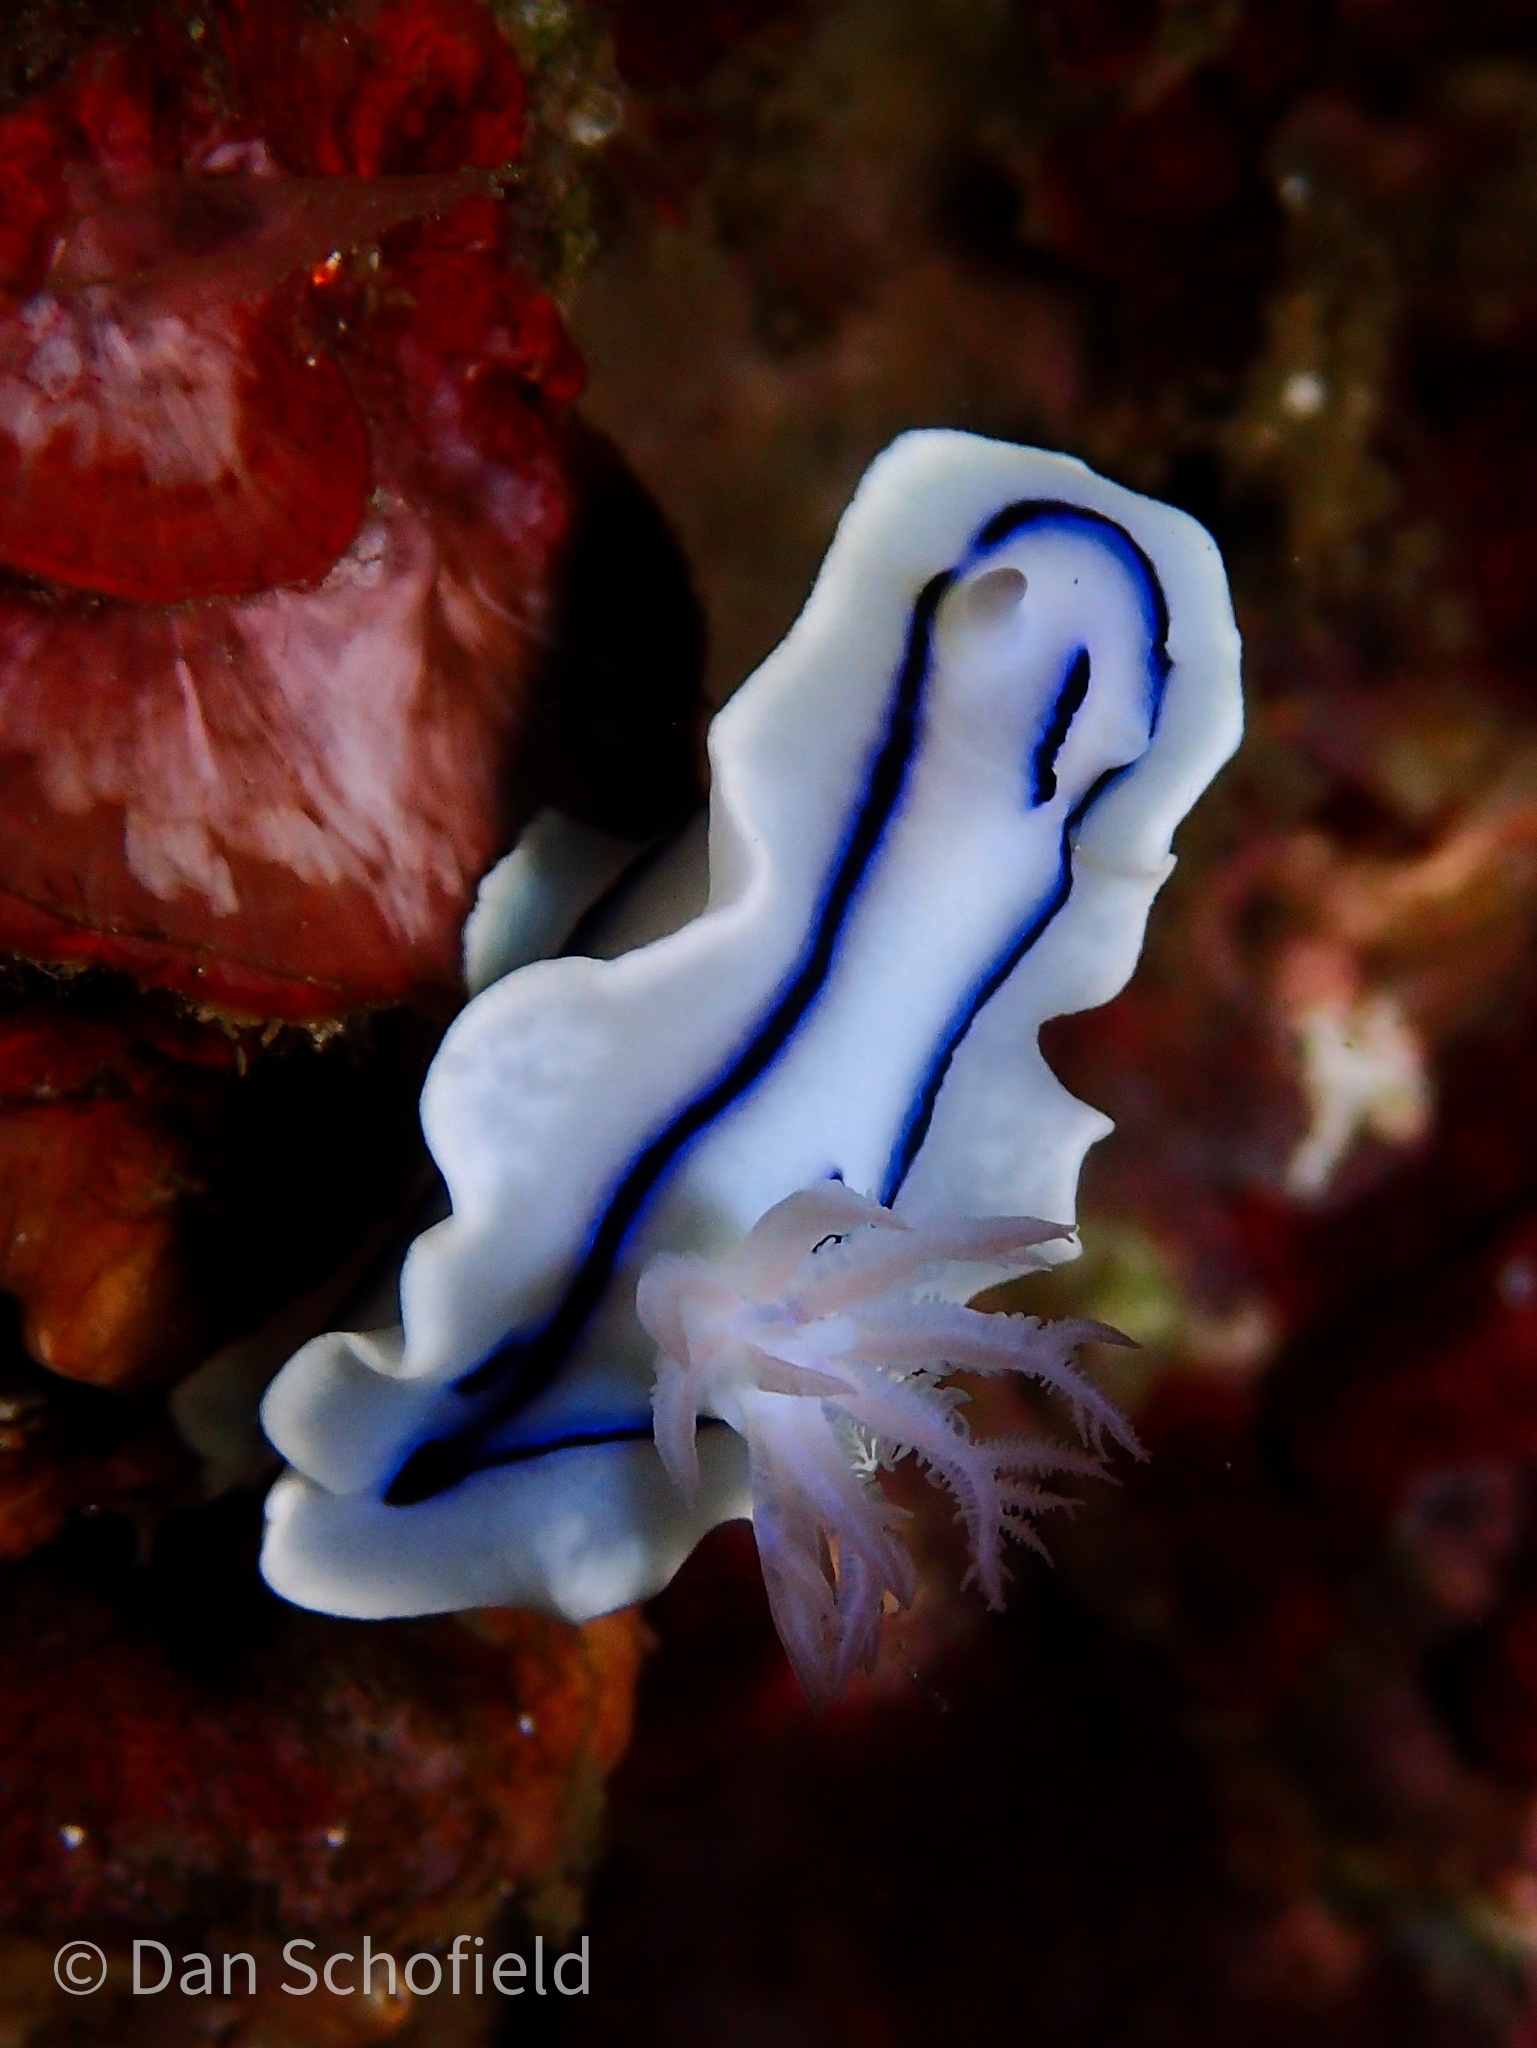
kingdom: Animalia
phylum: Mollusca
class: Gastropoda
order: Nudibranchia
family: Chromodorididae
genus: Chromodoris
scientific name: Chromodoris lochi
